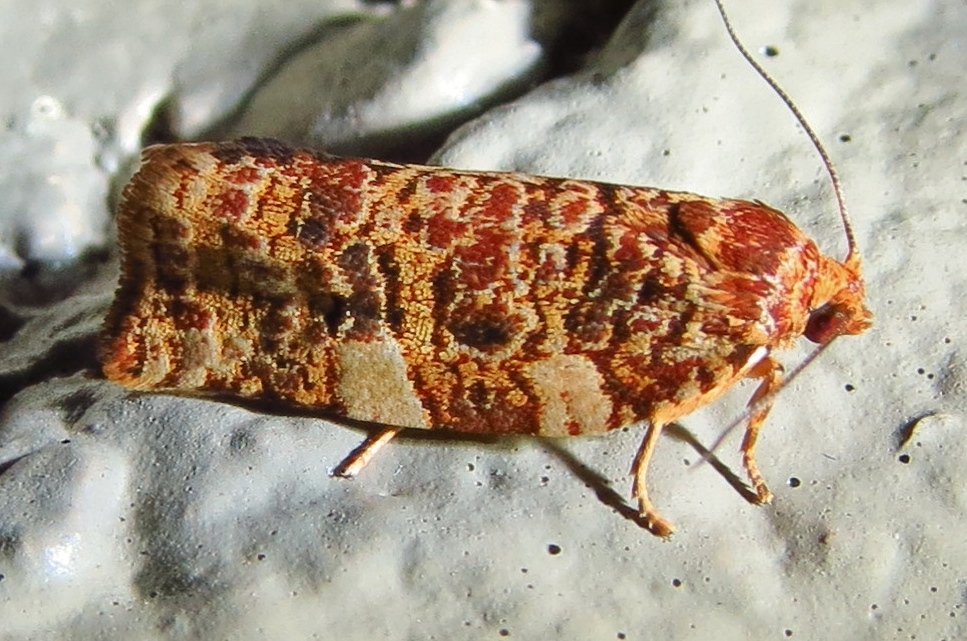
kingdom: Animalia
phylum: Arthropoda
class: Insecta
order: Lepidoptera
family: Tortricidae
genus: Choristoneura
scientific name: Choristoneura houstonana
